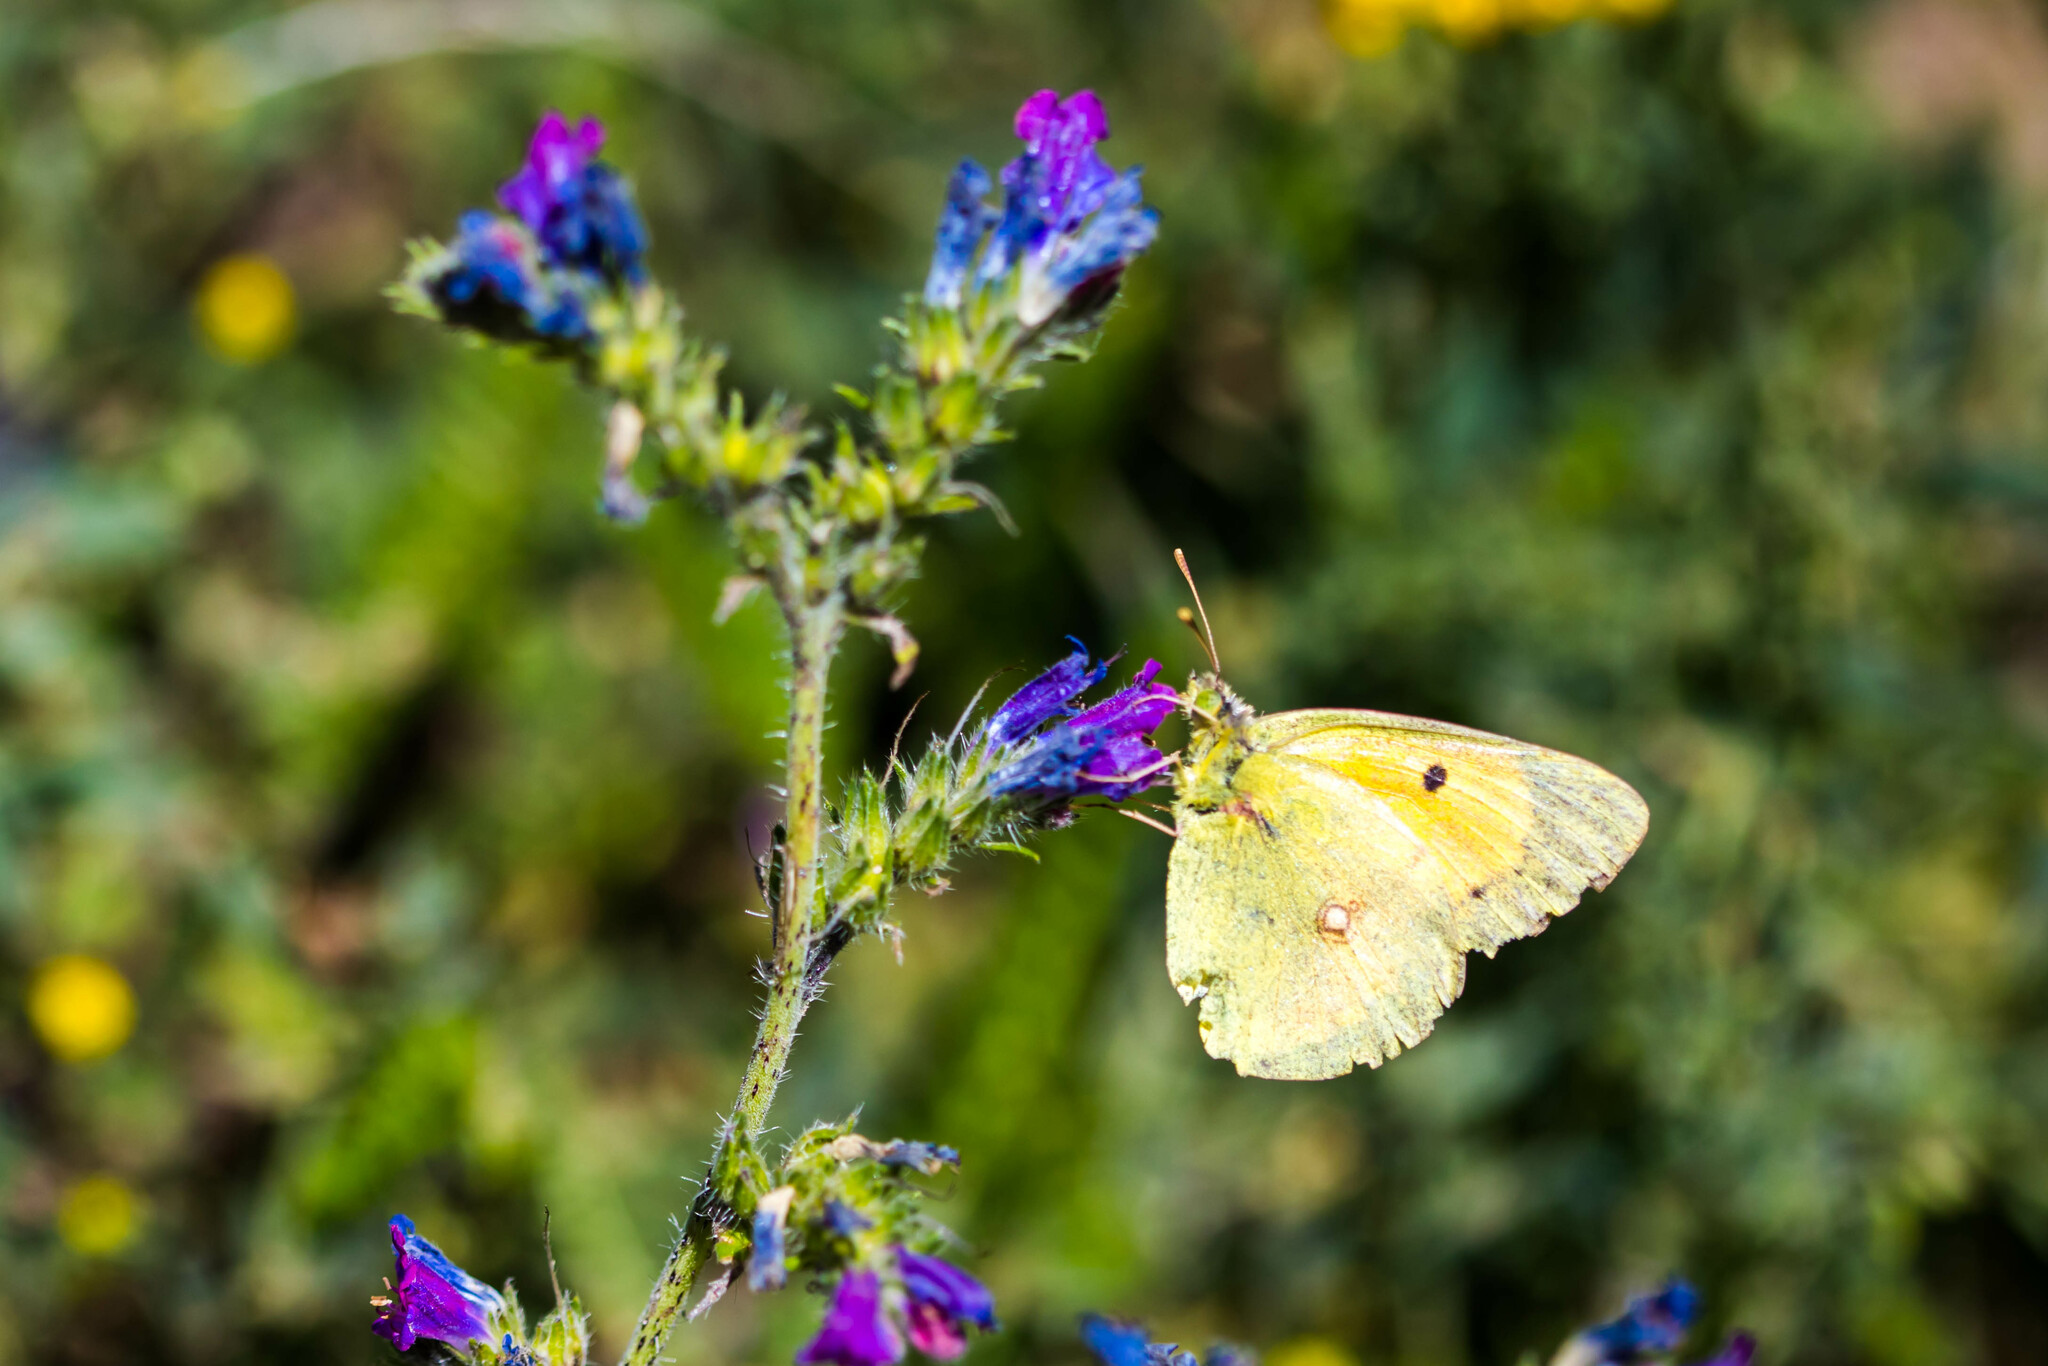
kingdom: Animalia
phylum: Arthropoda
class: Insecta
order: Lepidoptera
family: Pieridae
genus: Colias
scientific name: Colias croceus
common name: Clouded yellow
